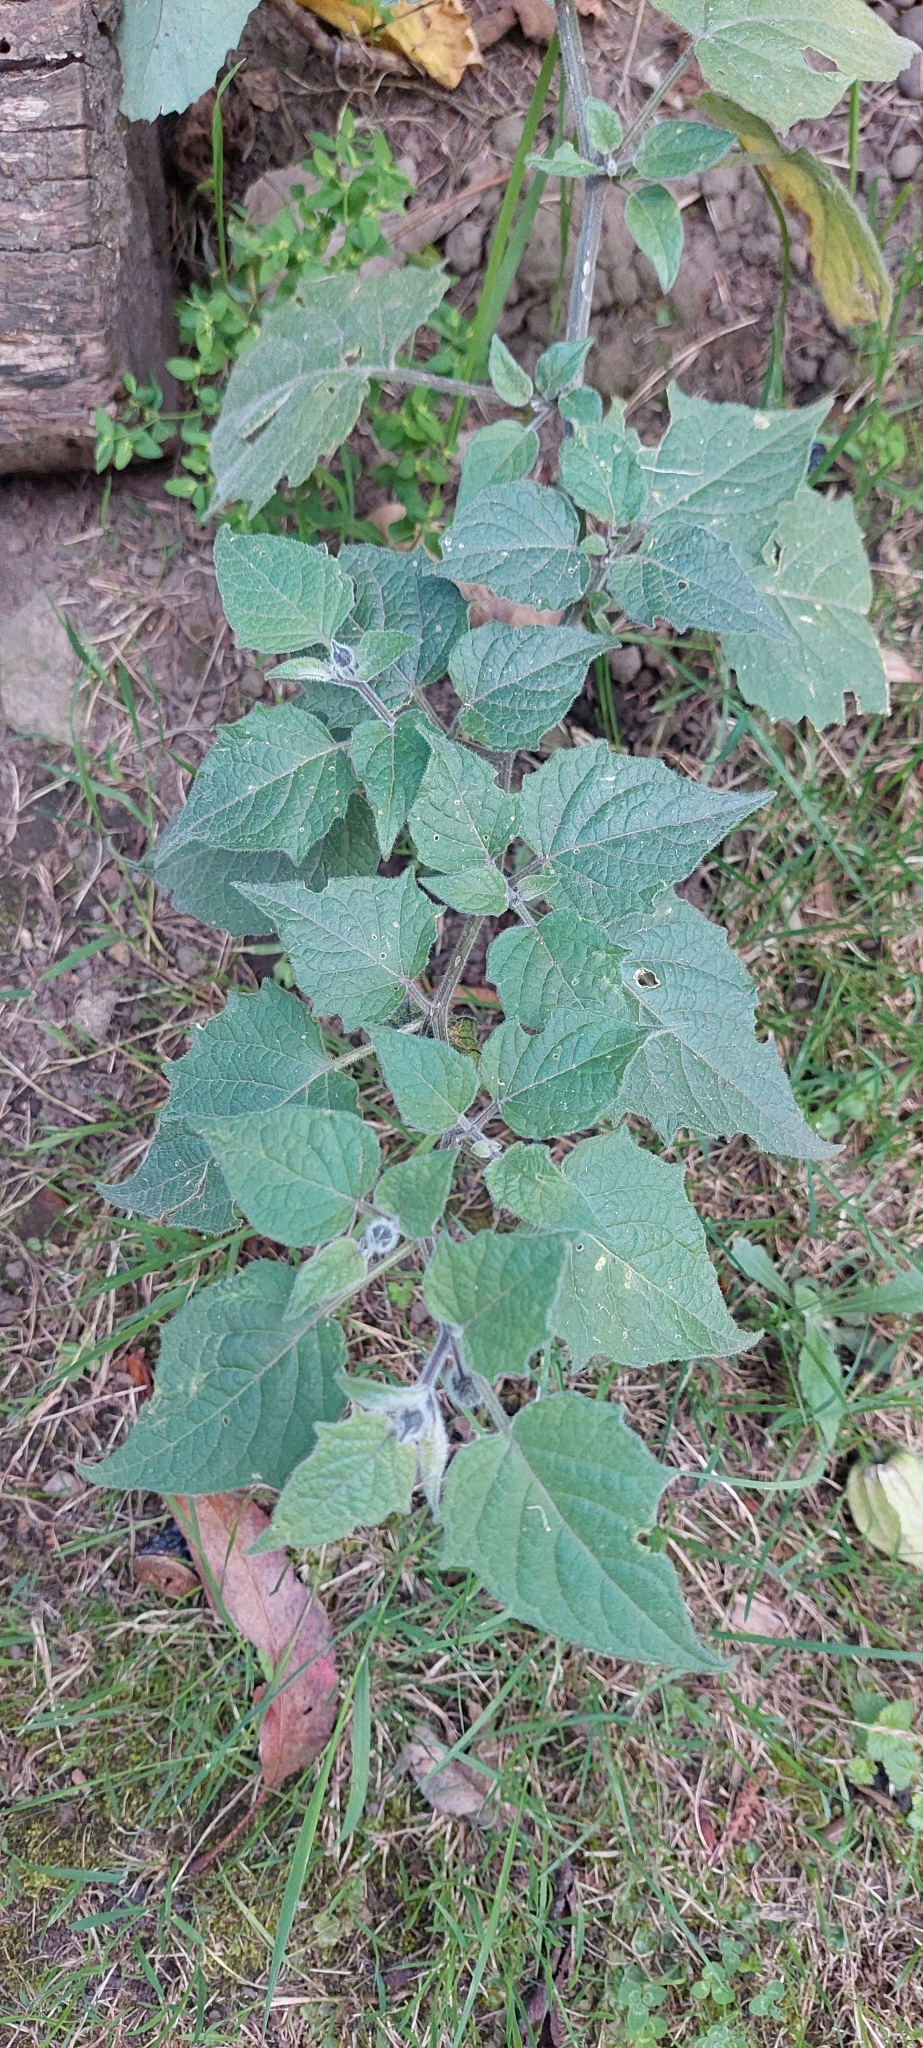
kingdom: Plantae
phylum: Tracheophyta
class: Magnoliopsida
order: Solanales
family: Solanaceae
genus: Physalis
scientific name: Physalis peruviana
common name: Cape-gooseberry
